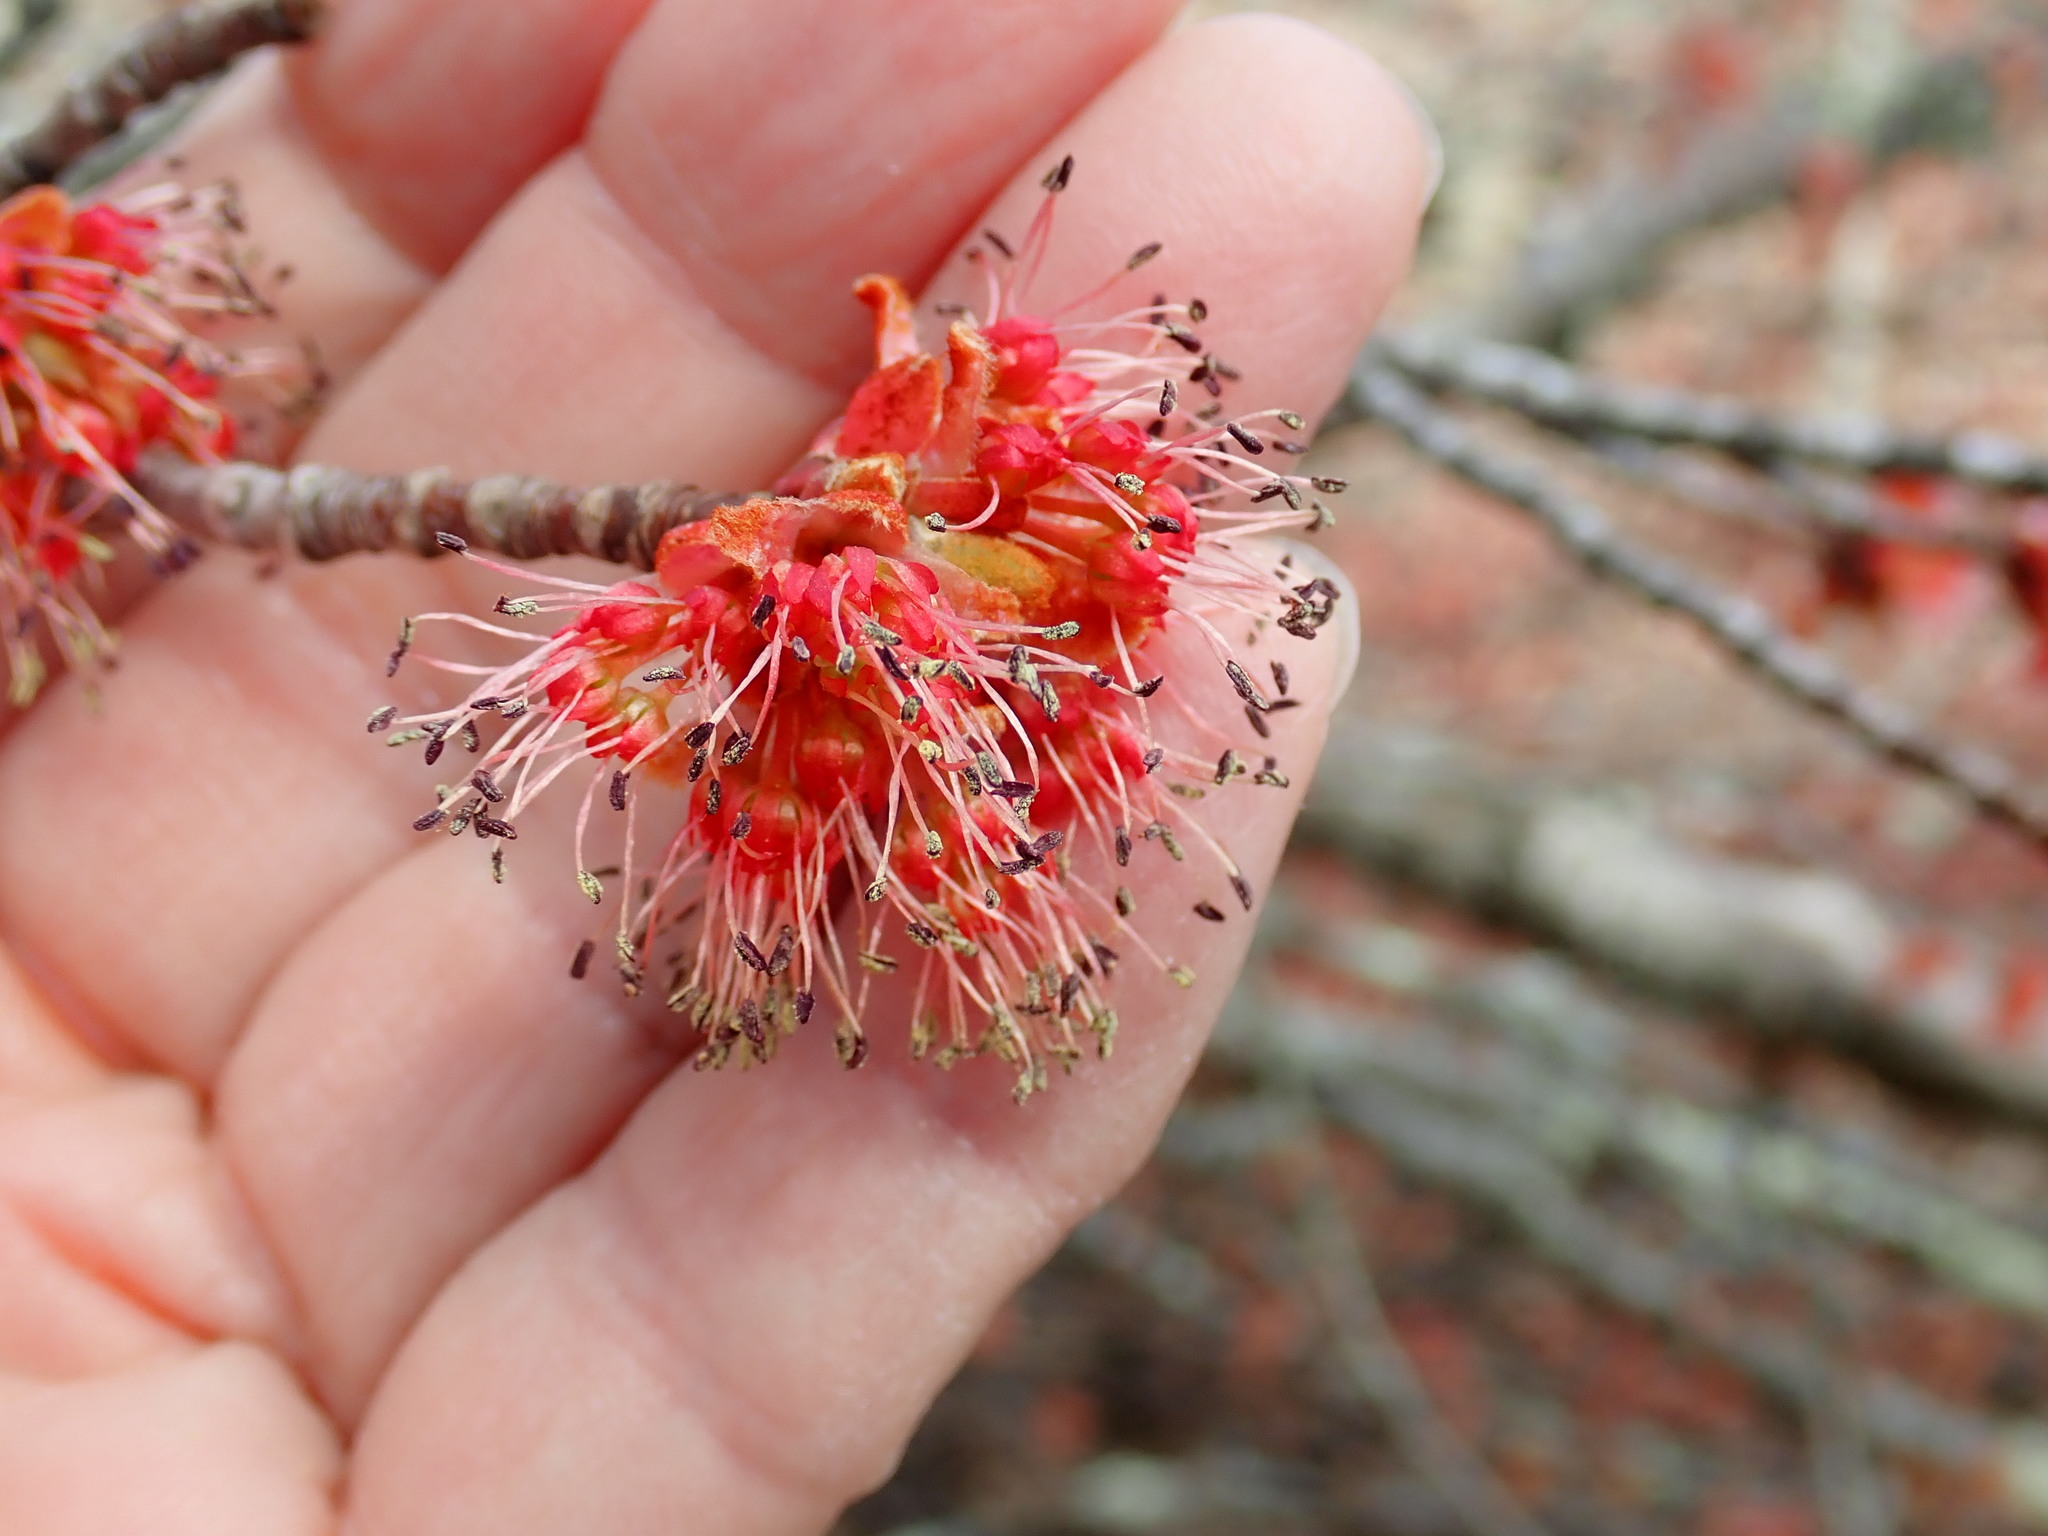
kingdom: Plantae
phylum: Tracheophyta
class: Magnoliopsida
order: Sapindales
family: Sapindaceae
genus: Acer
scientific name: Acer rubrum
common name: Red maple
